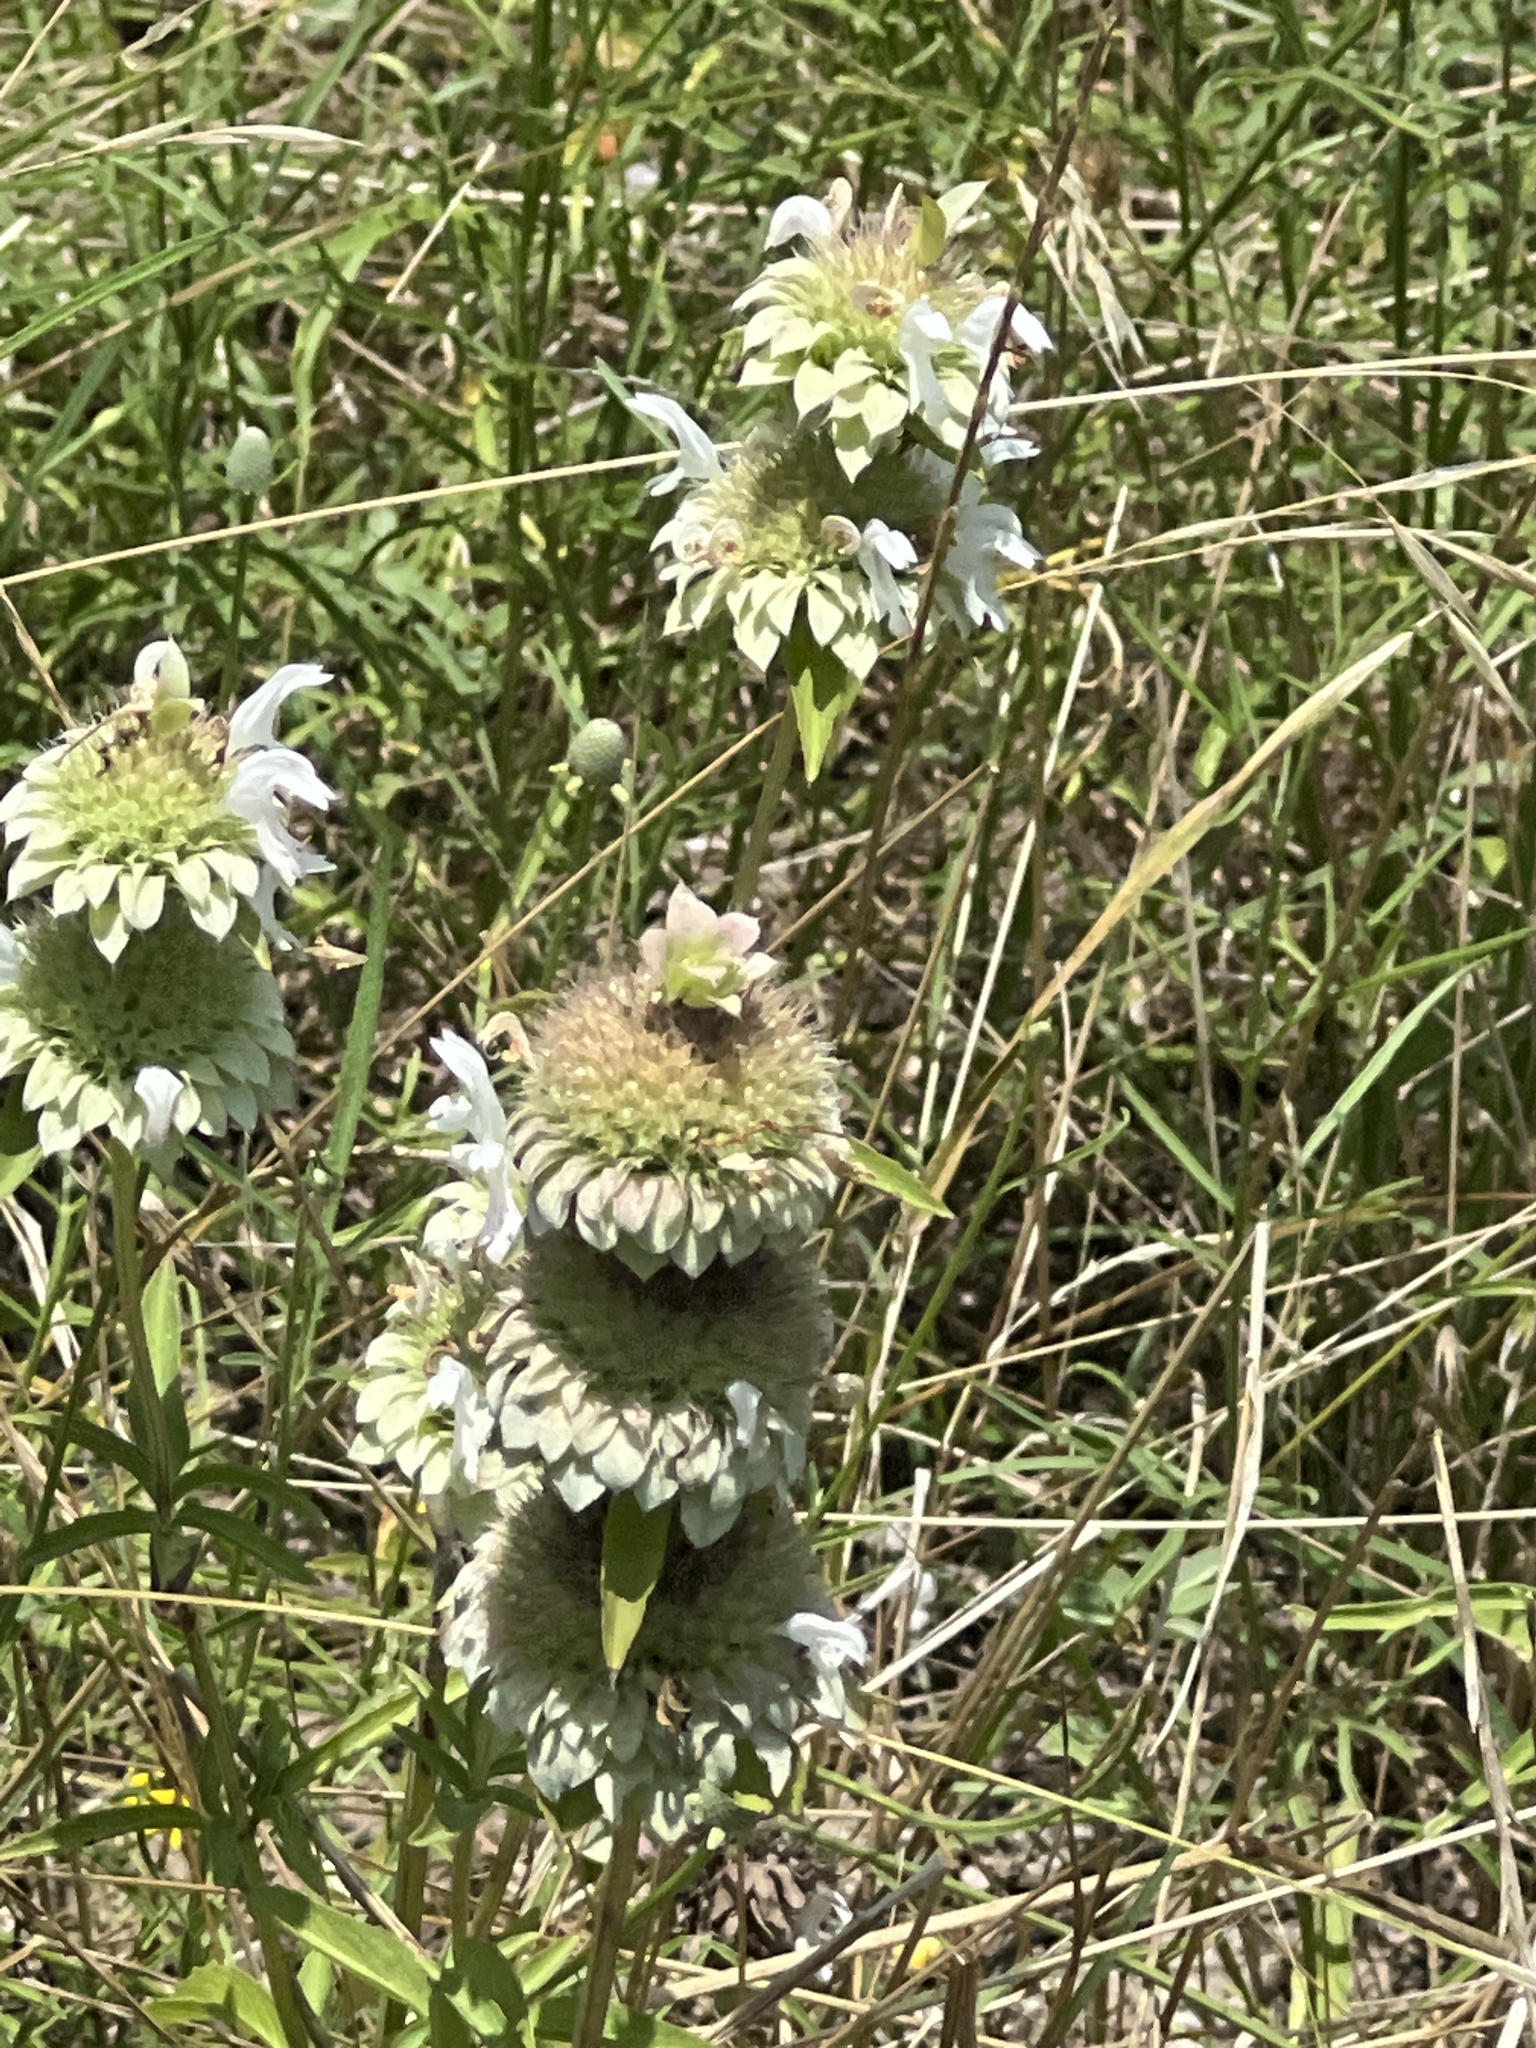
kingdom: Plantae
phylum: Tracheophyta
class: Magnoliopsida
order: Lamiales
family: Lamiaceae
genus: Monarda
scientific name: Monarda citriodora
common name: Lemon beebalm
